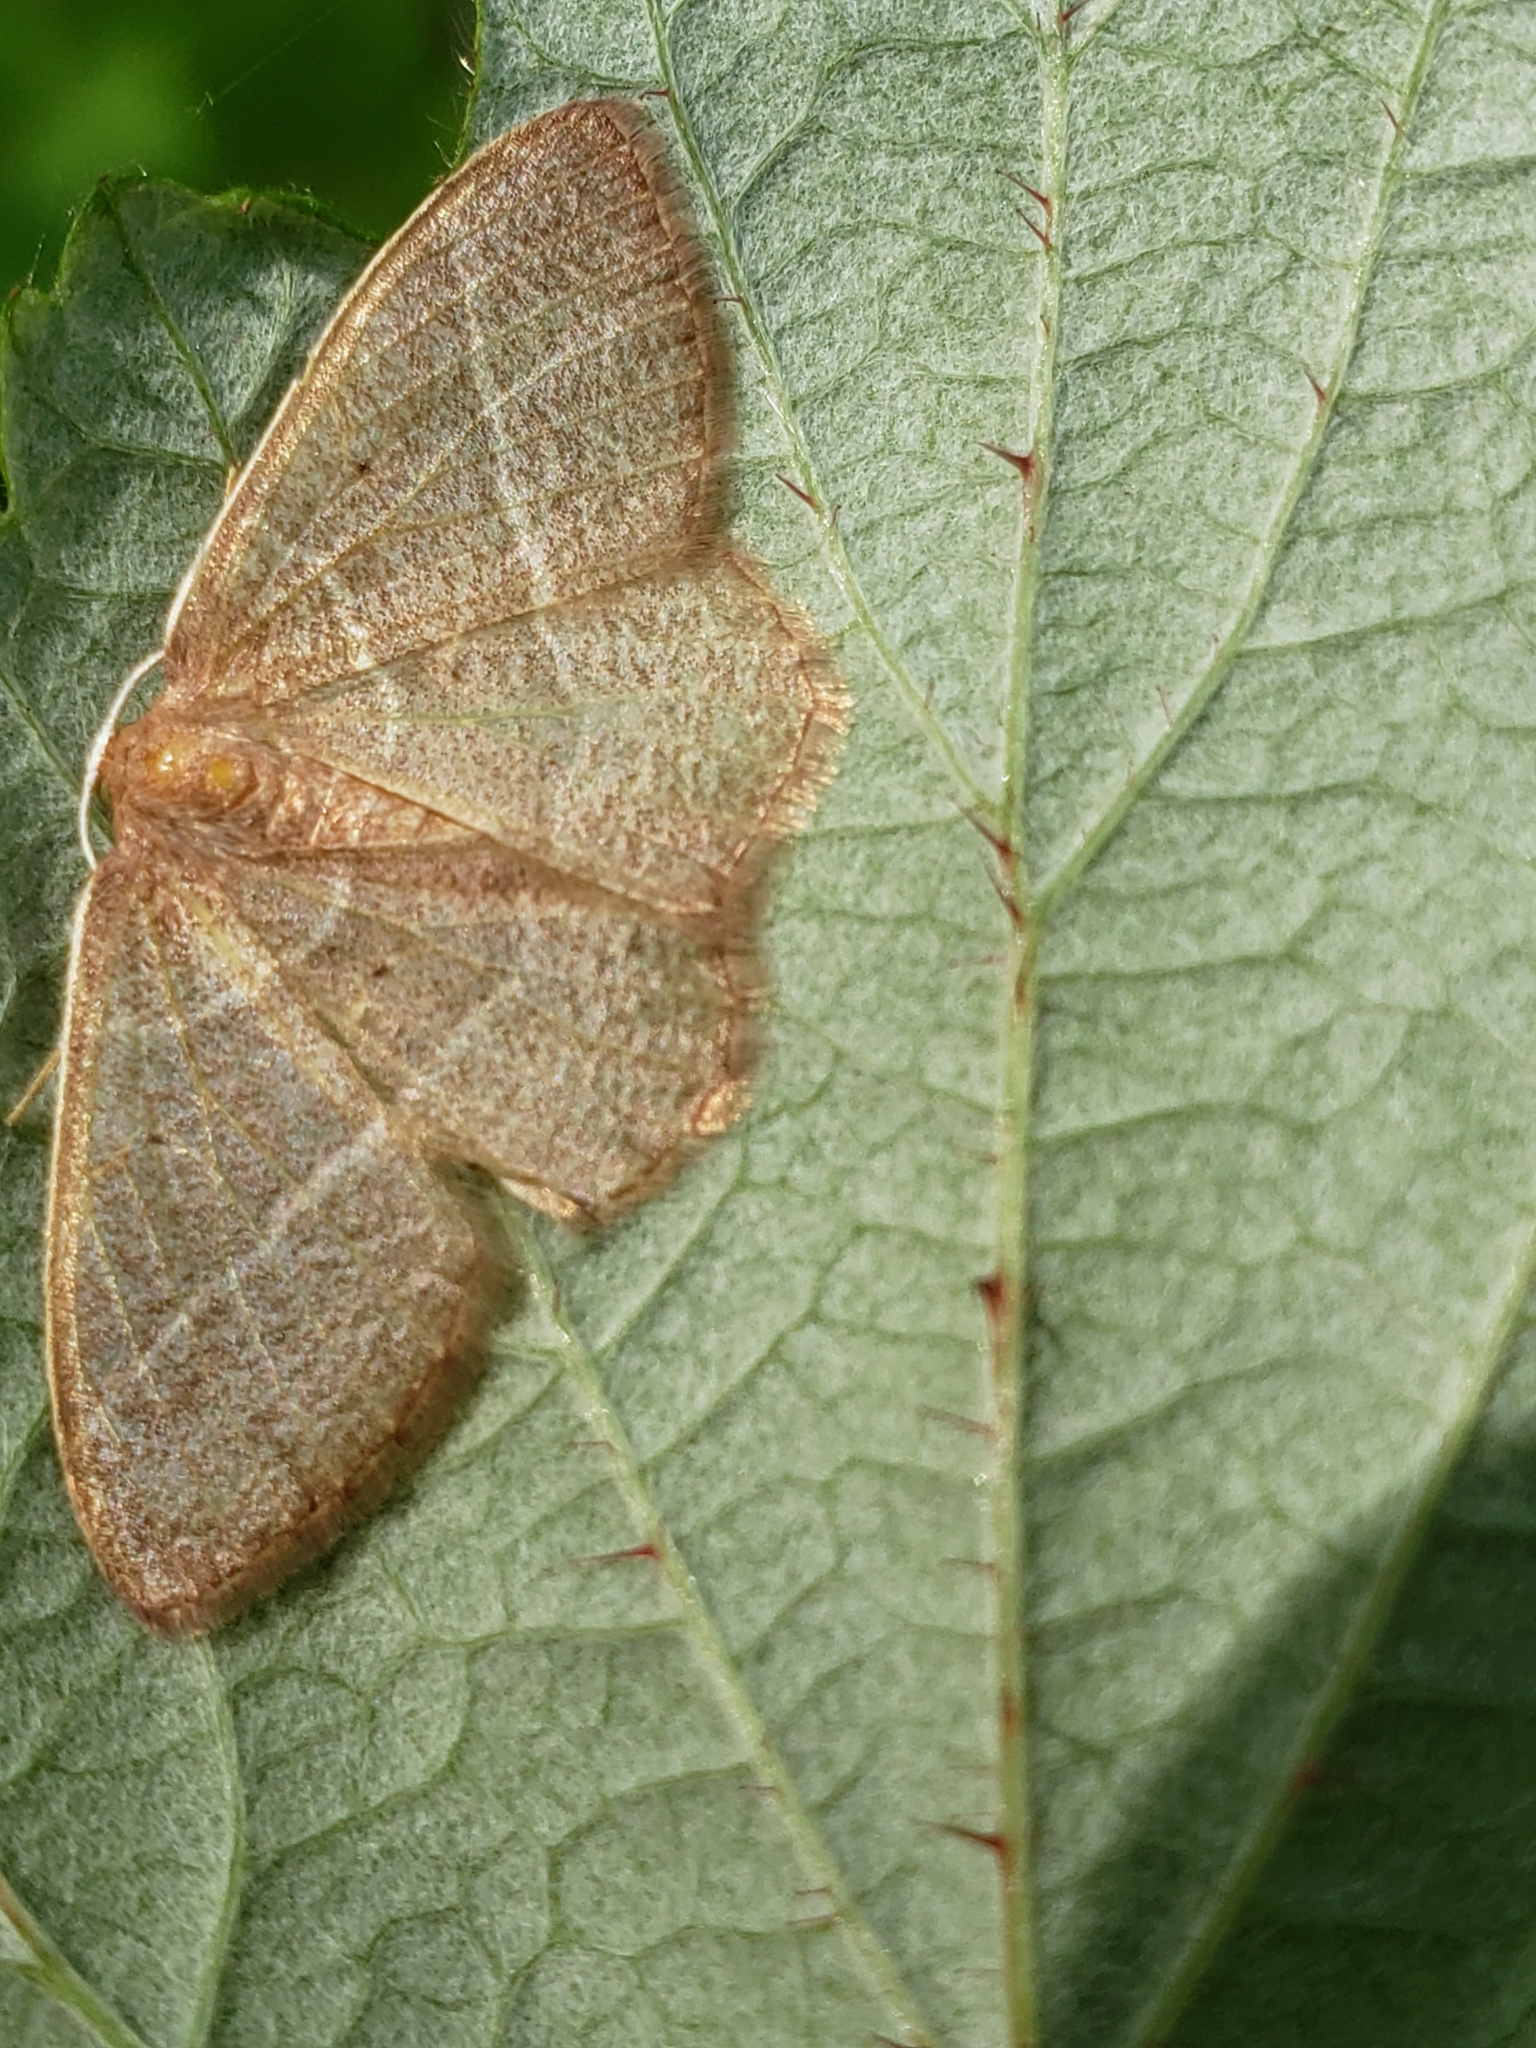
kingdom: Animalia
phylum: Arthropoda
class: Insecta
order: Lepidoptera
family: Geometridae
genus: Nemoria
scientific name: Nemoria bistriaria
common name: Red-fringed emerald
